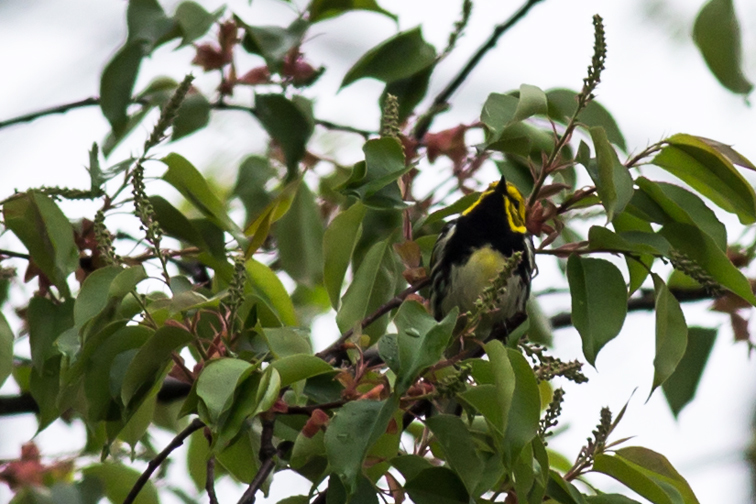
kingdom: Animalia
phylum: Chordata
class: Aves
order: Passeriformes
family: Parulidae
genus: Setophaga
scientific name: Setophaga virens
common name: Black-throated green warbler
